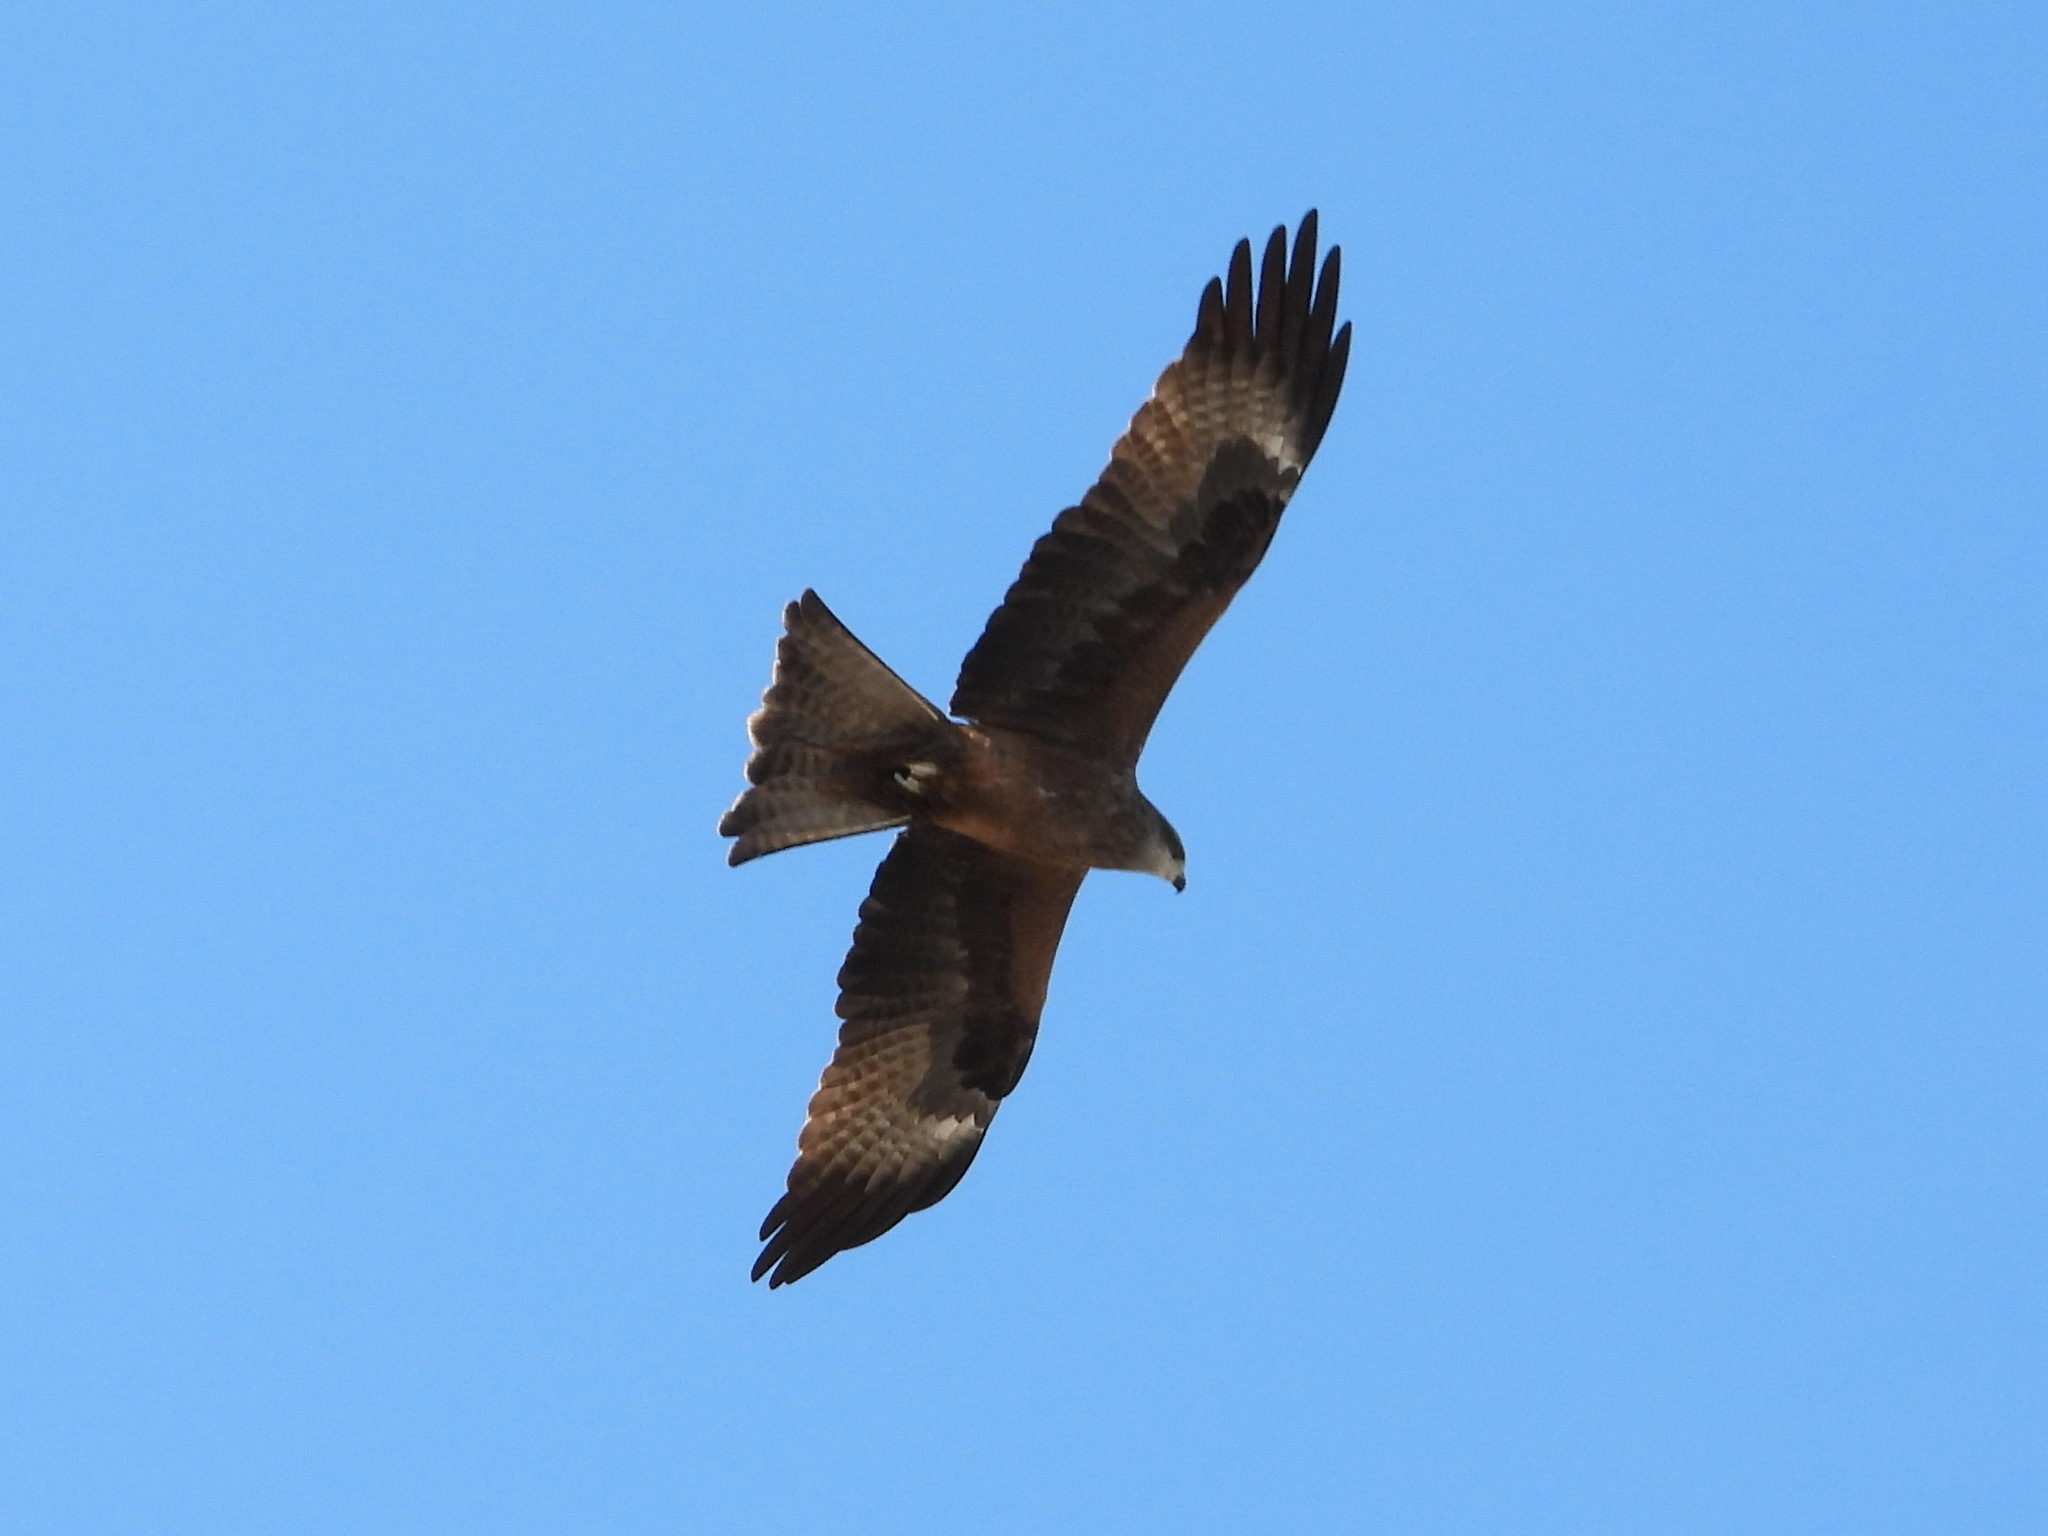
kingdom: Animalia
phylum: Chordata
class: Aves
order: Accipitriformes
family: Accipitridae
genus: Milvus
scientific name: Milvus migrans
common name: Black kite
